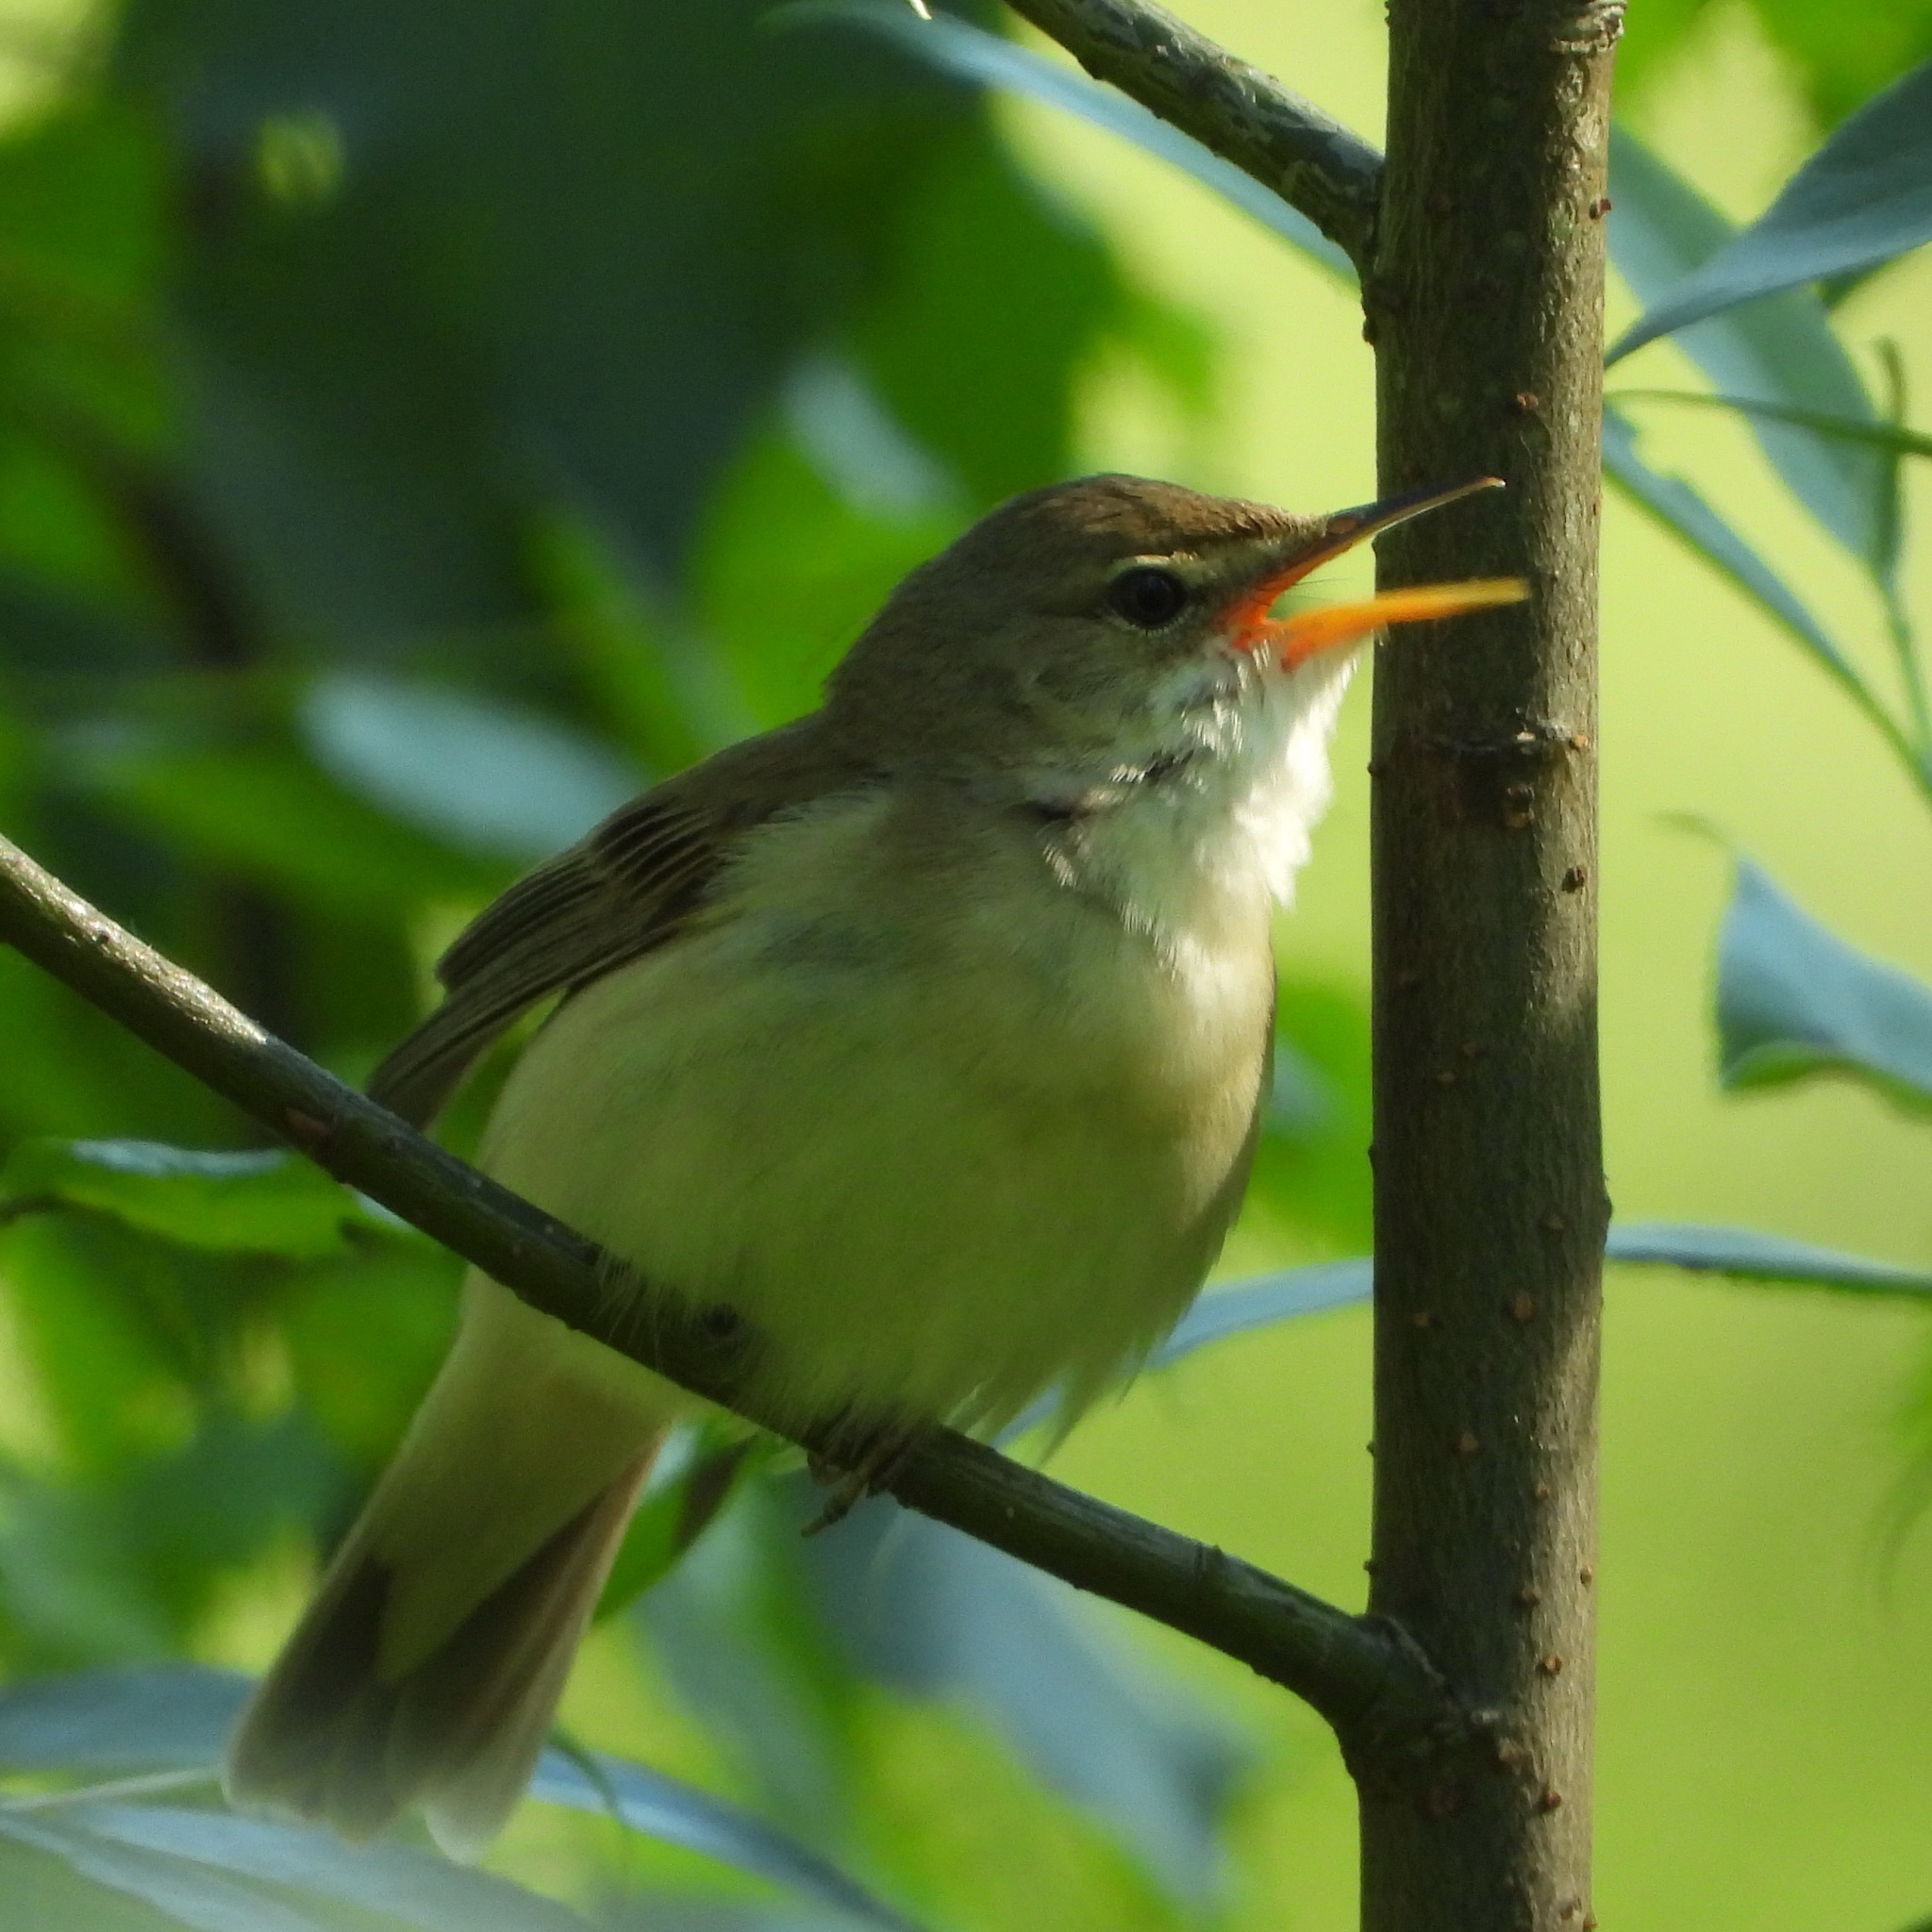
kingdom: Animalia
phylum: Chordata
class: Aves
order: Passeriformes
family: Acrocephalidae
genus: Acrocephalus
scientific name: Acrocephalus palustris
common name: Marsh warbler
